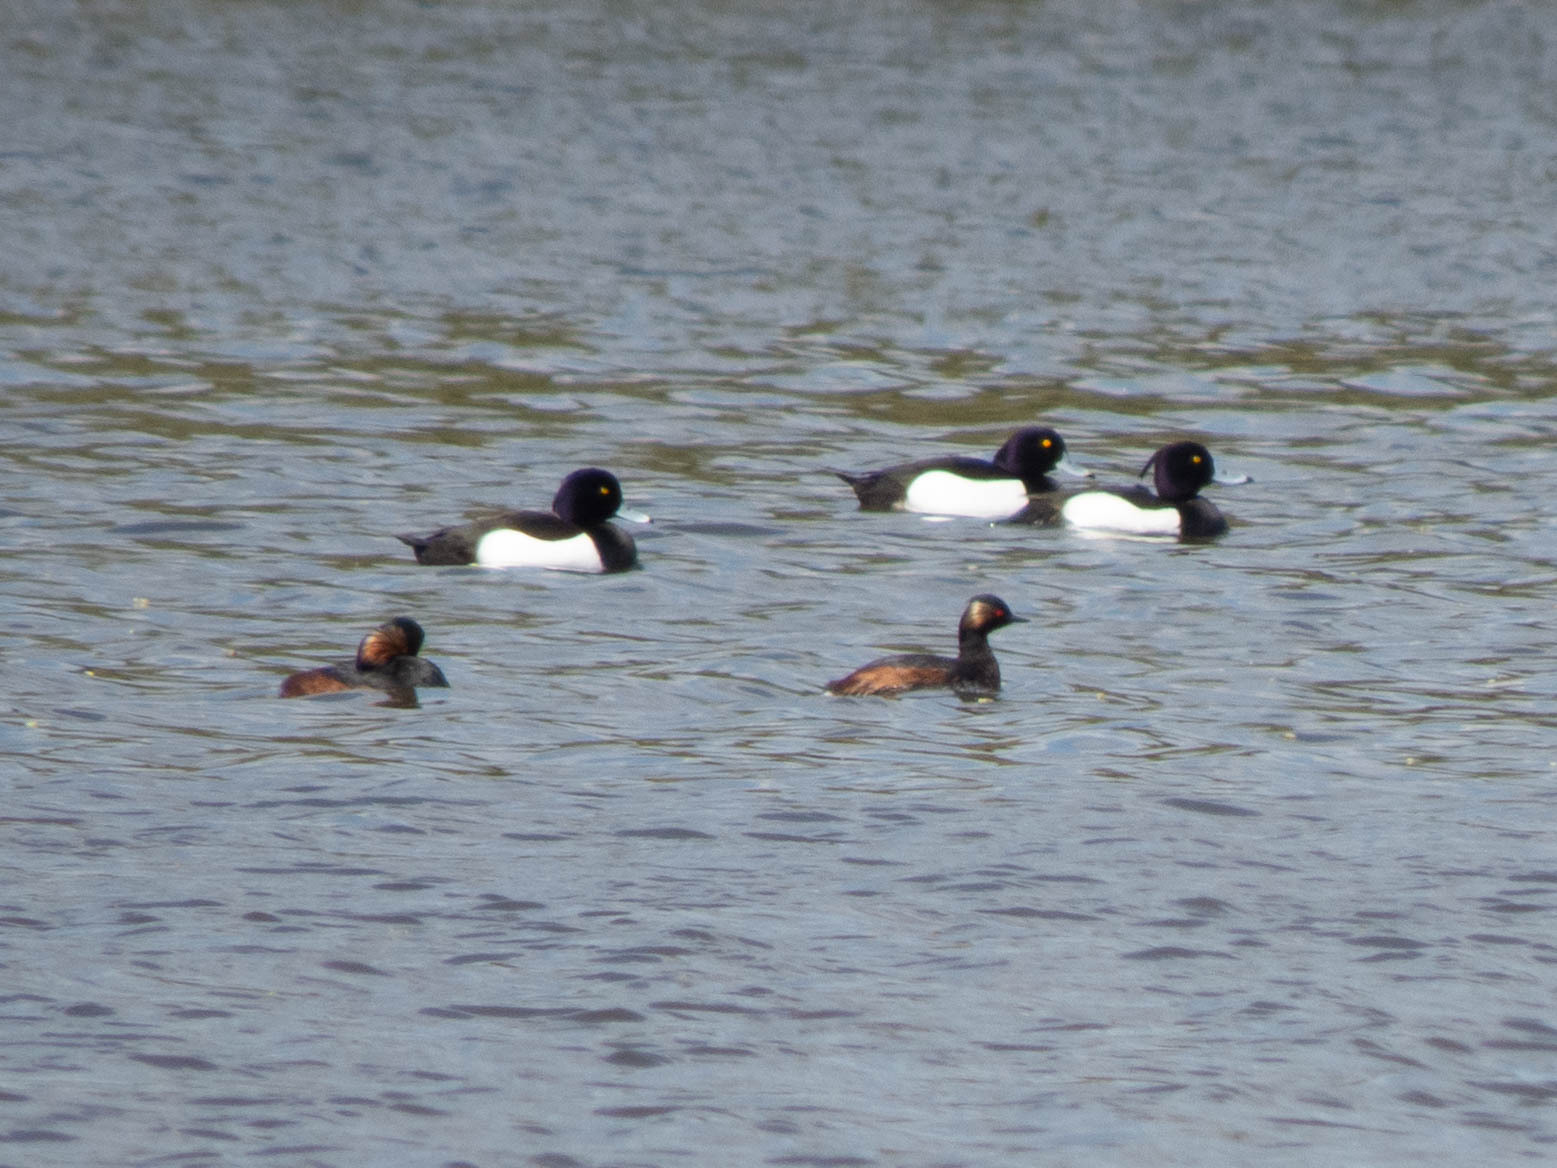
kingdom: Animalia
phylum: Chordata
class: Aves
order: Podicipediformes
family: Podicipedidae
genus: Podiceps
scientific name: Podiceps nigricollis
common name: Black-necked grebe
